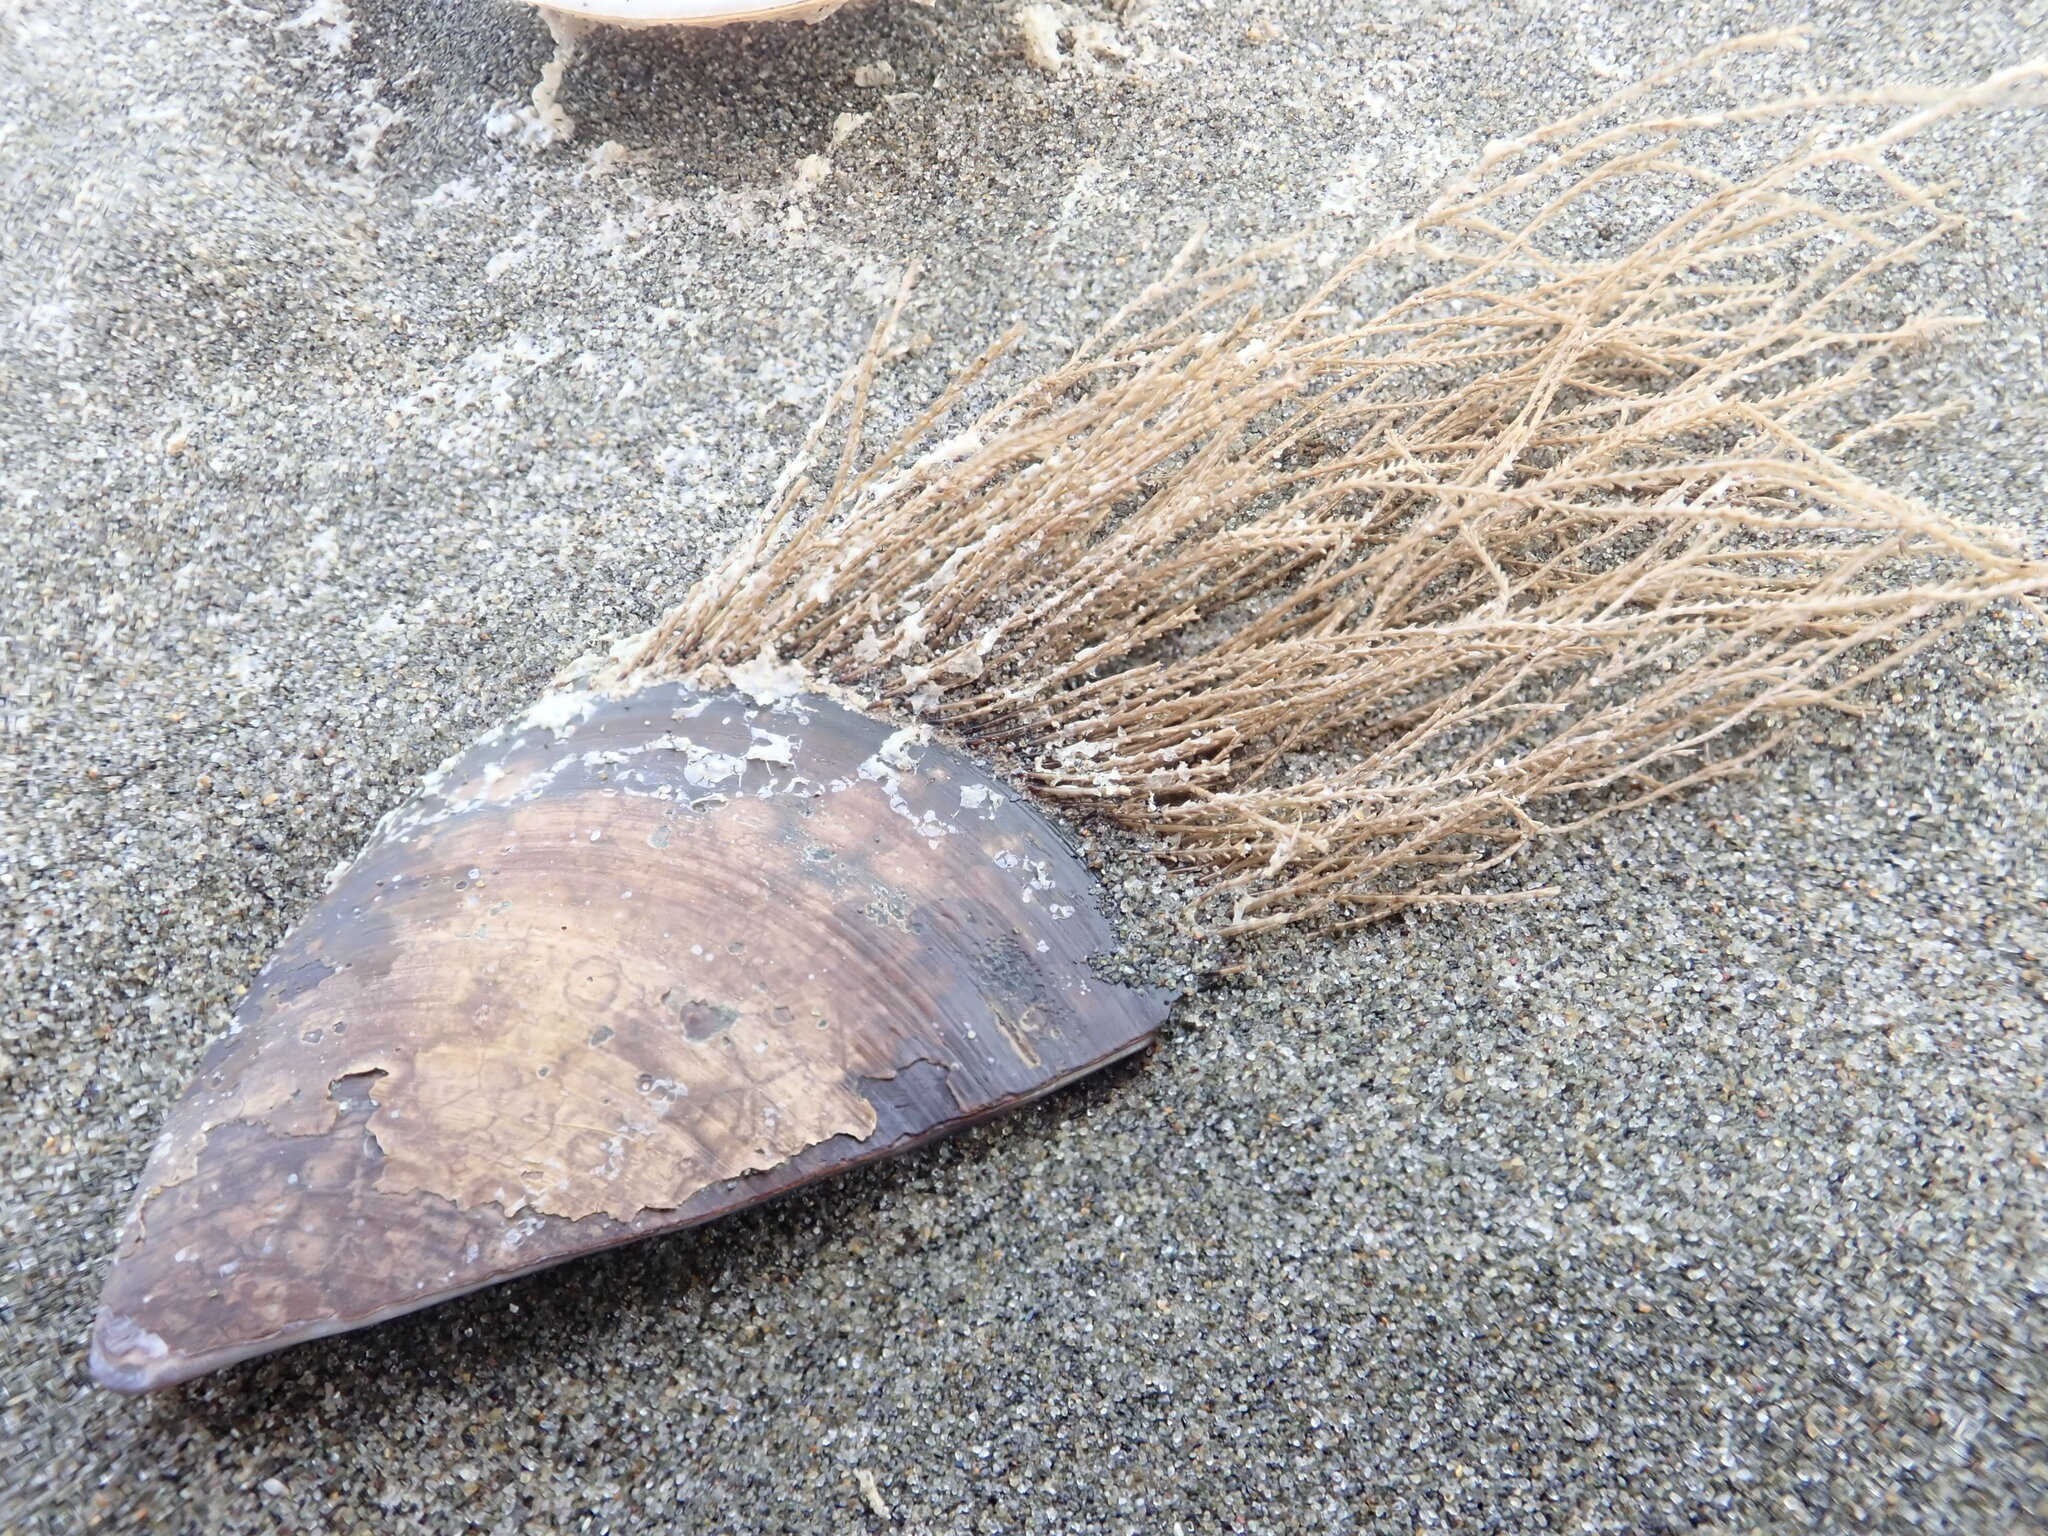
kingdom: Animalia
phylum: Cnidaria
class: Hydrozoa
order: Leptothecata
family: Sertulariidae
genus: Amphisbetia
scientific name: Amphisbetia bispinosa
